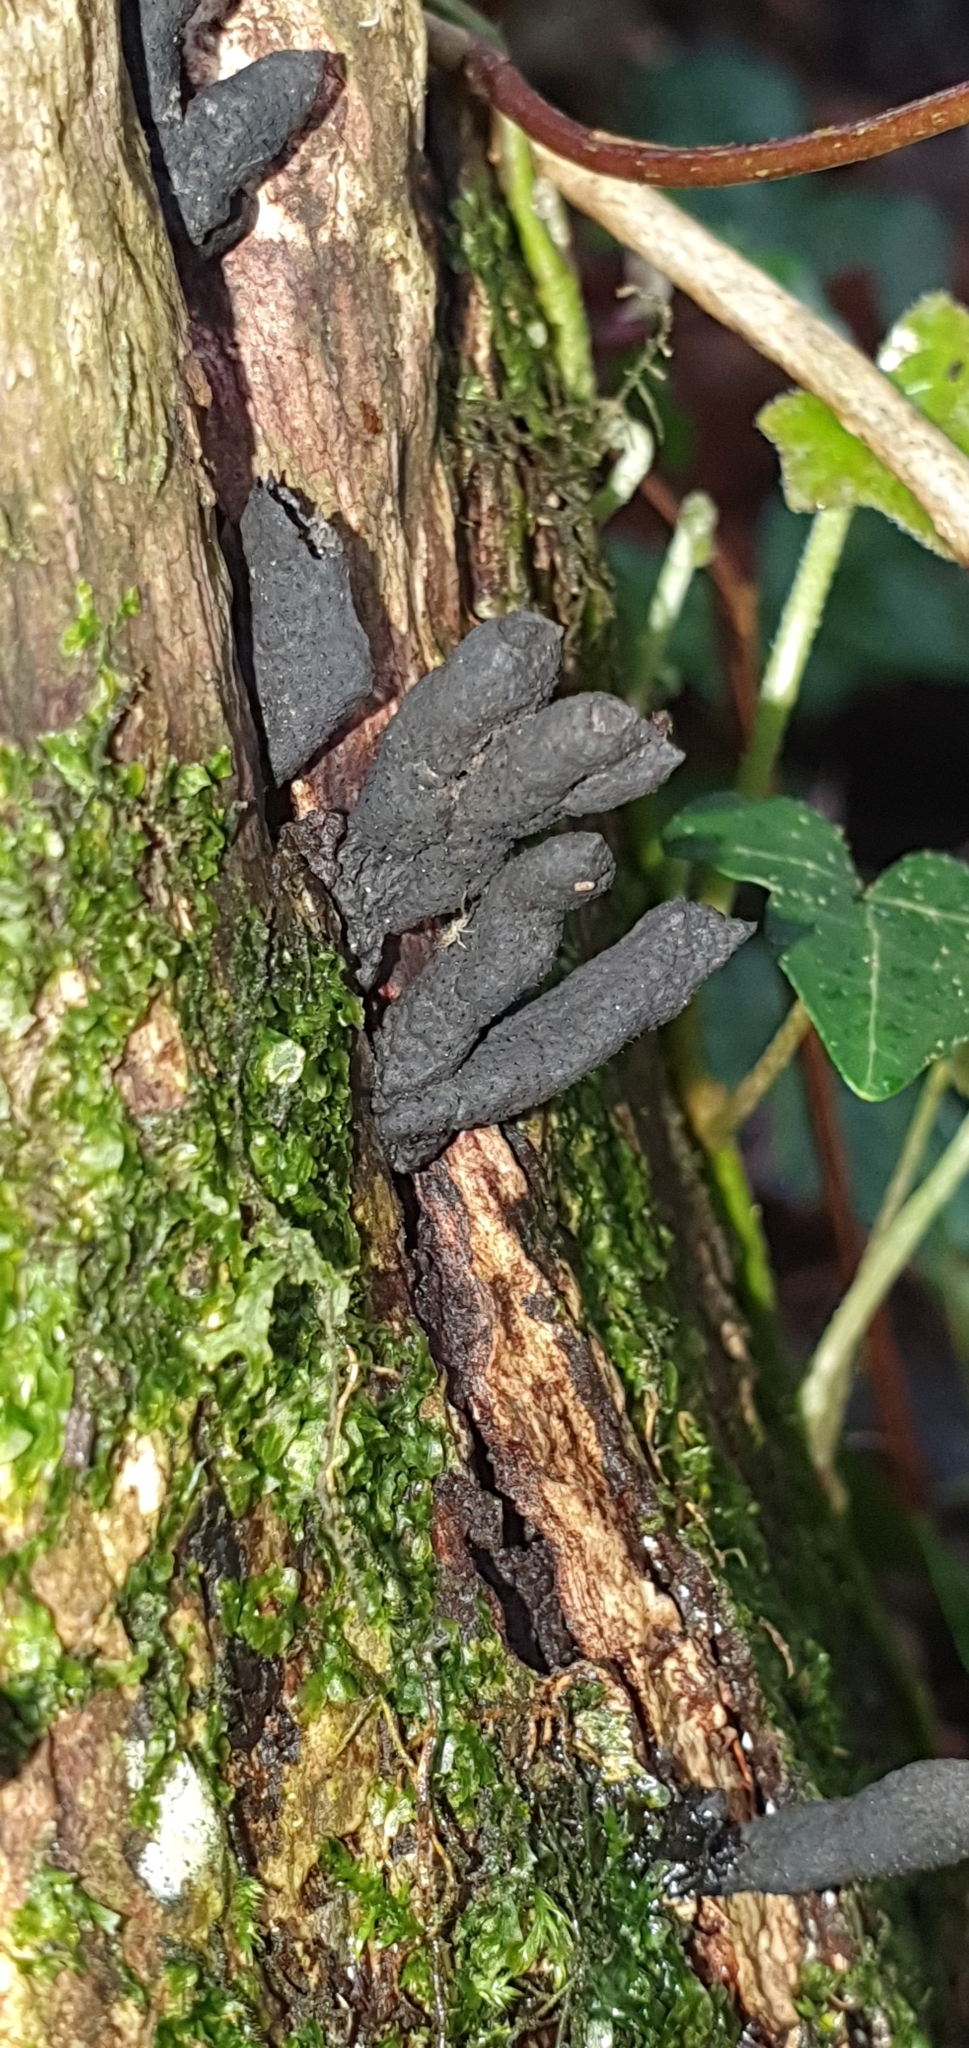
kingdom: Fungi
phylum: Ascomycota
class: Sordariomycetes
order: Xylariales
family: Xylariaceae
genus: Xylaria
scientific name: Xylaria polymorpha
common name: Dead man's fingers
